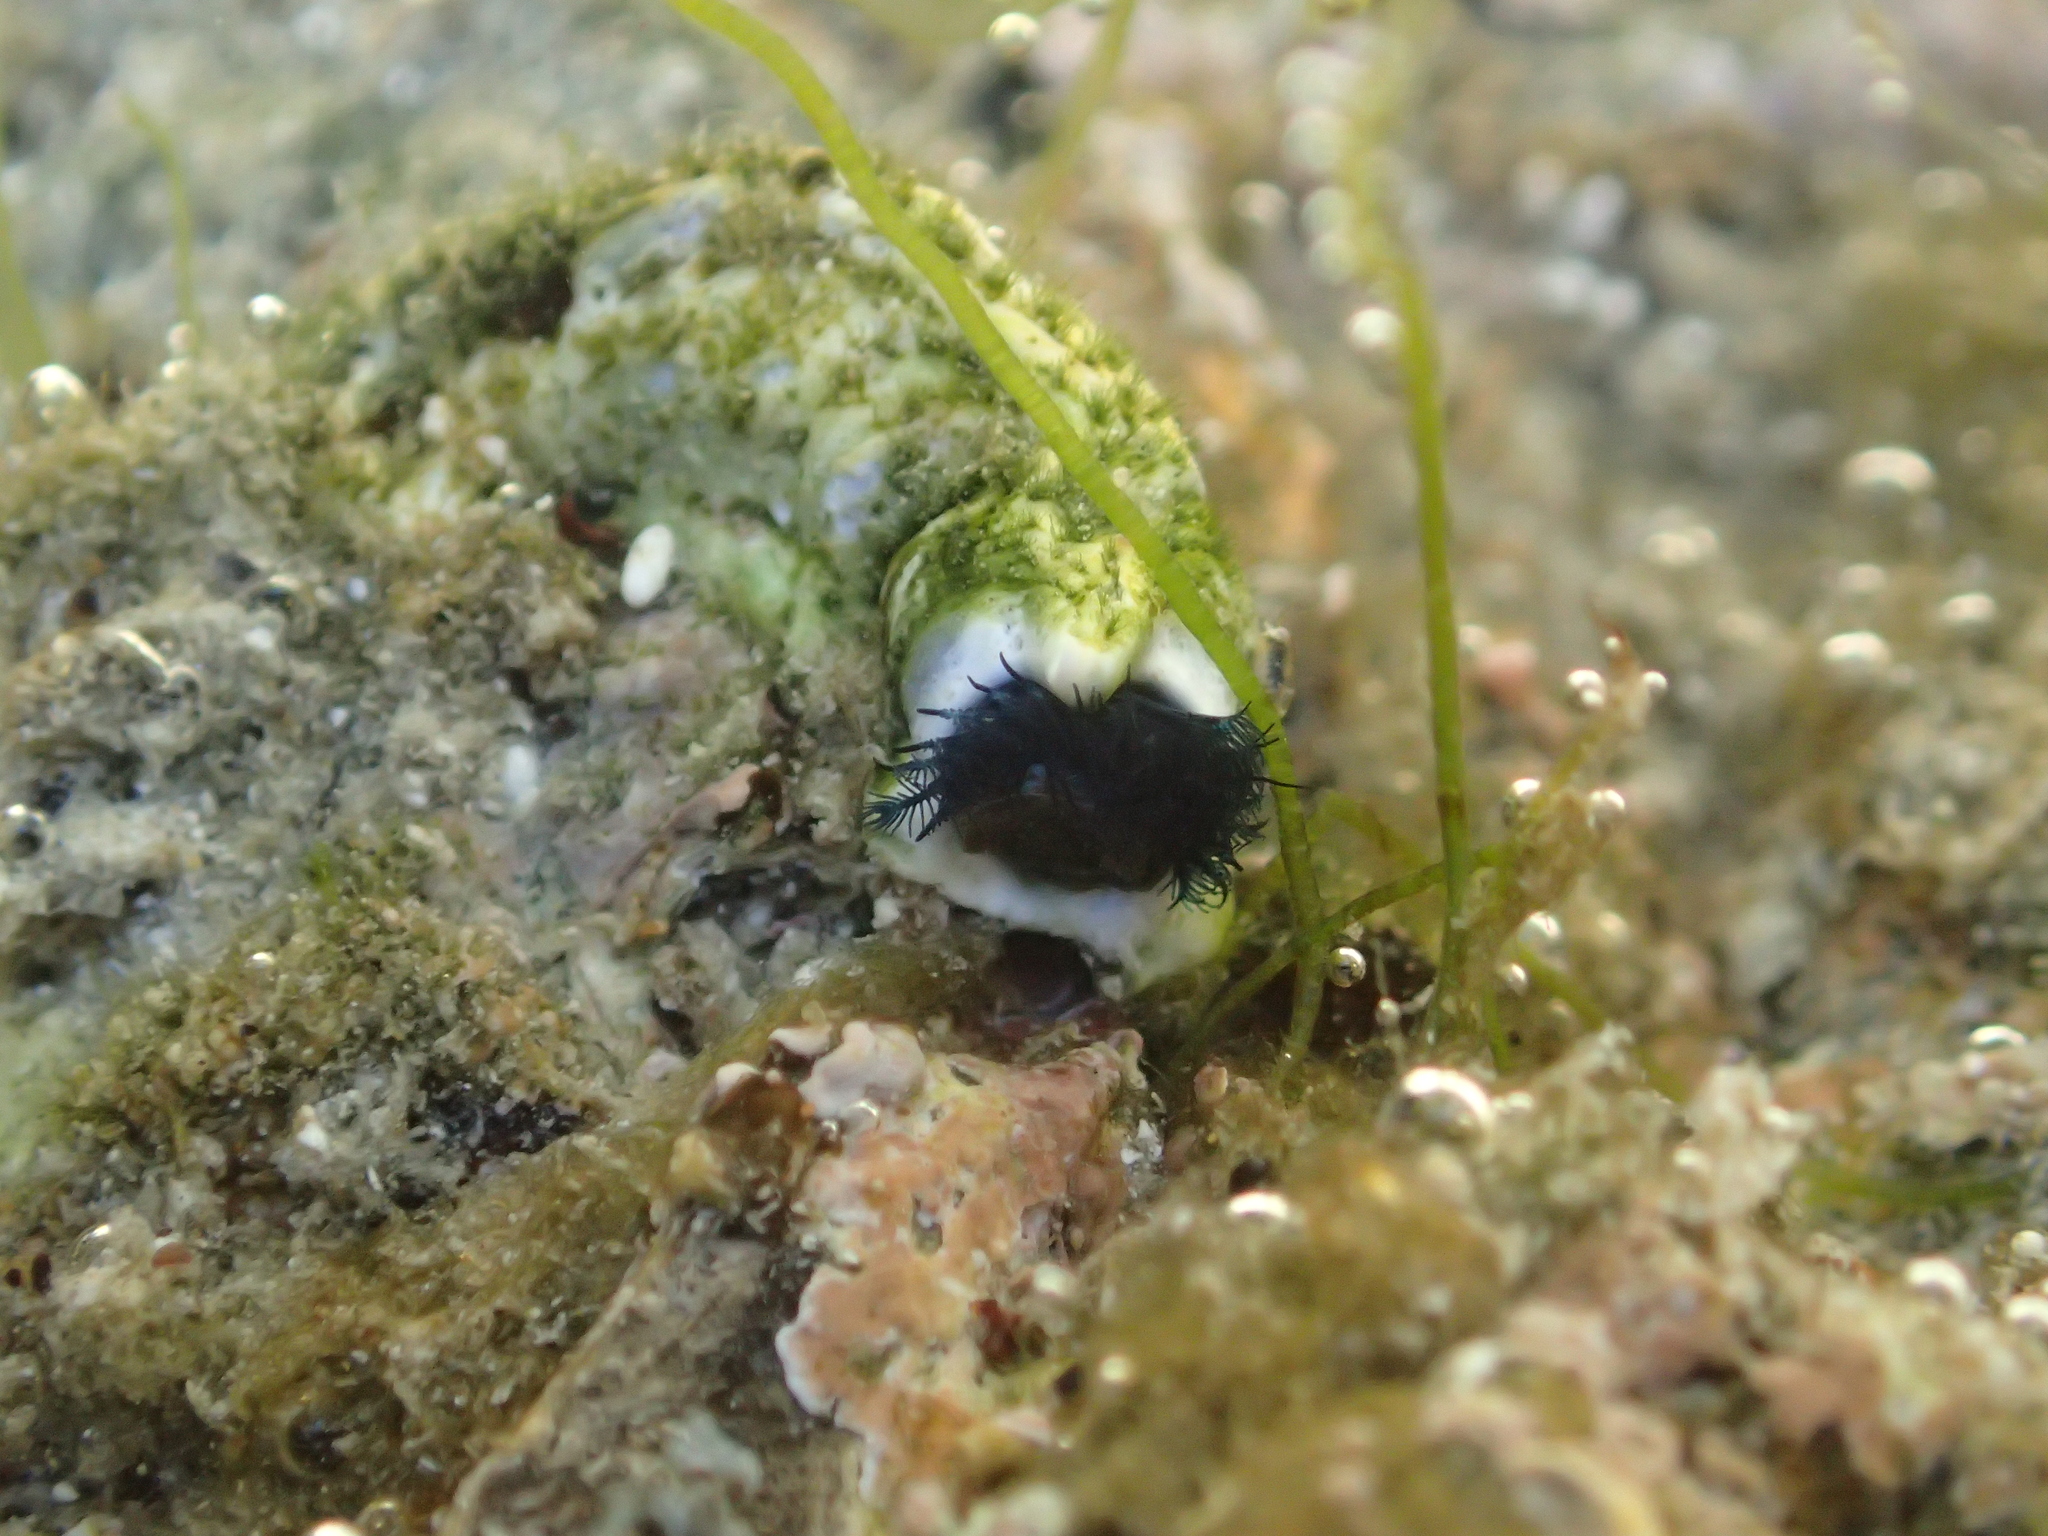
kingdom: Animalia
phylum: Annelida
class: Polychaeta
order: Sabellida
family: Serpulidae
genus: Spirobranchus
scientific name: Spirobranchus cariniferus
